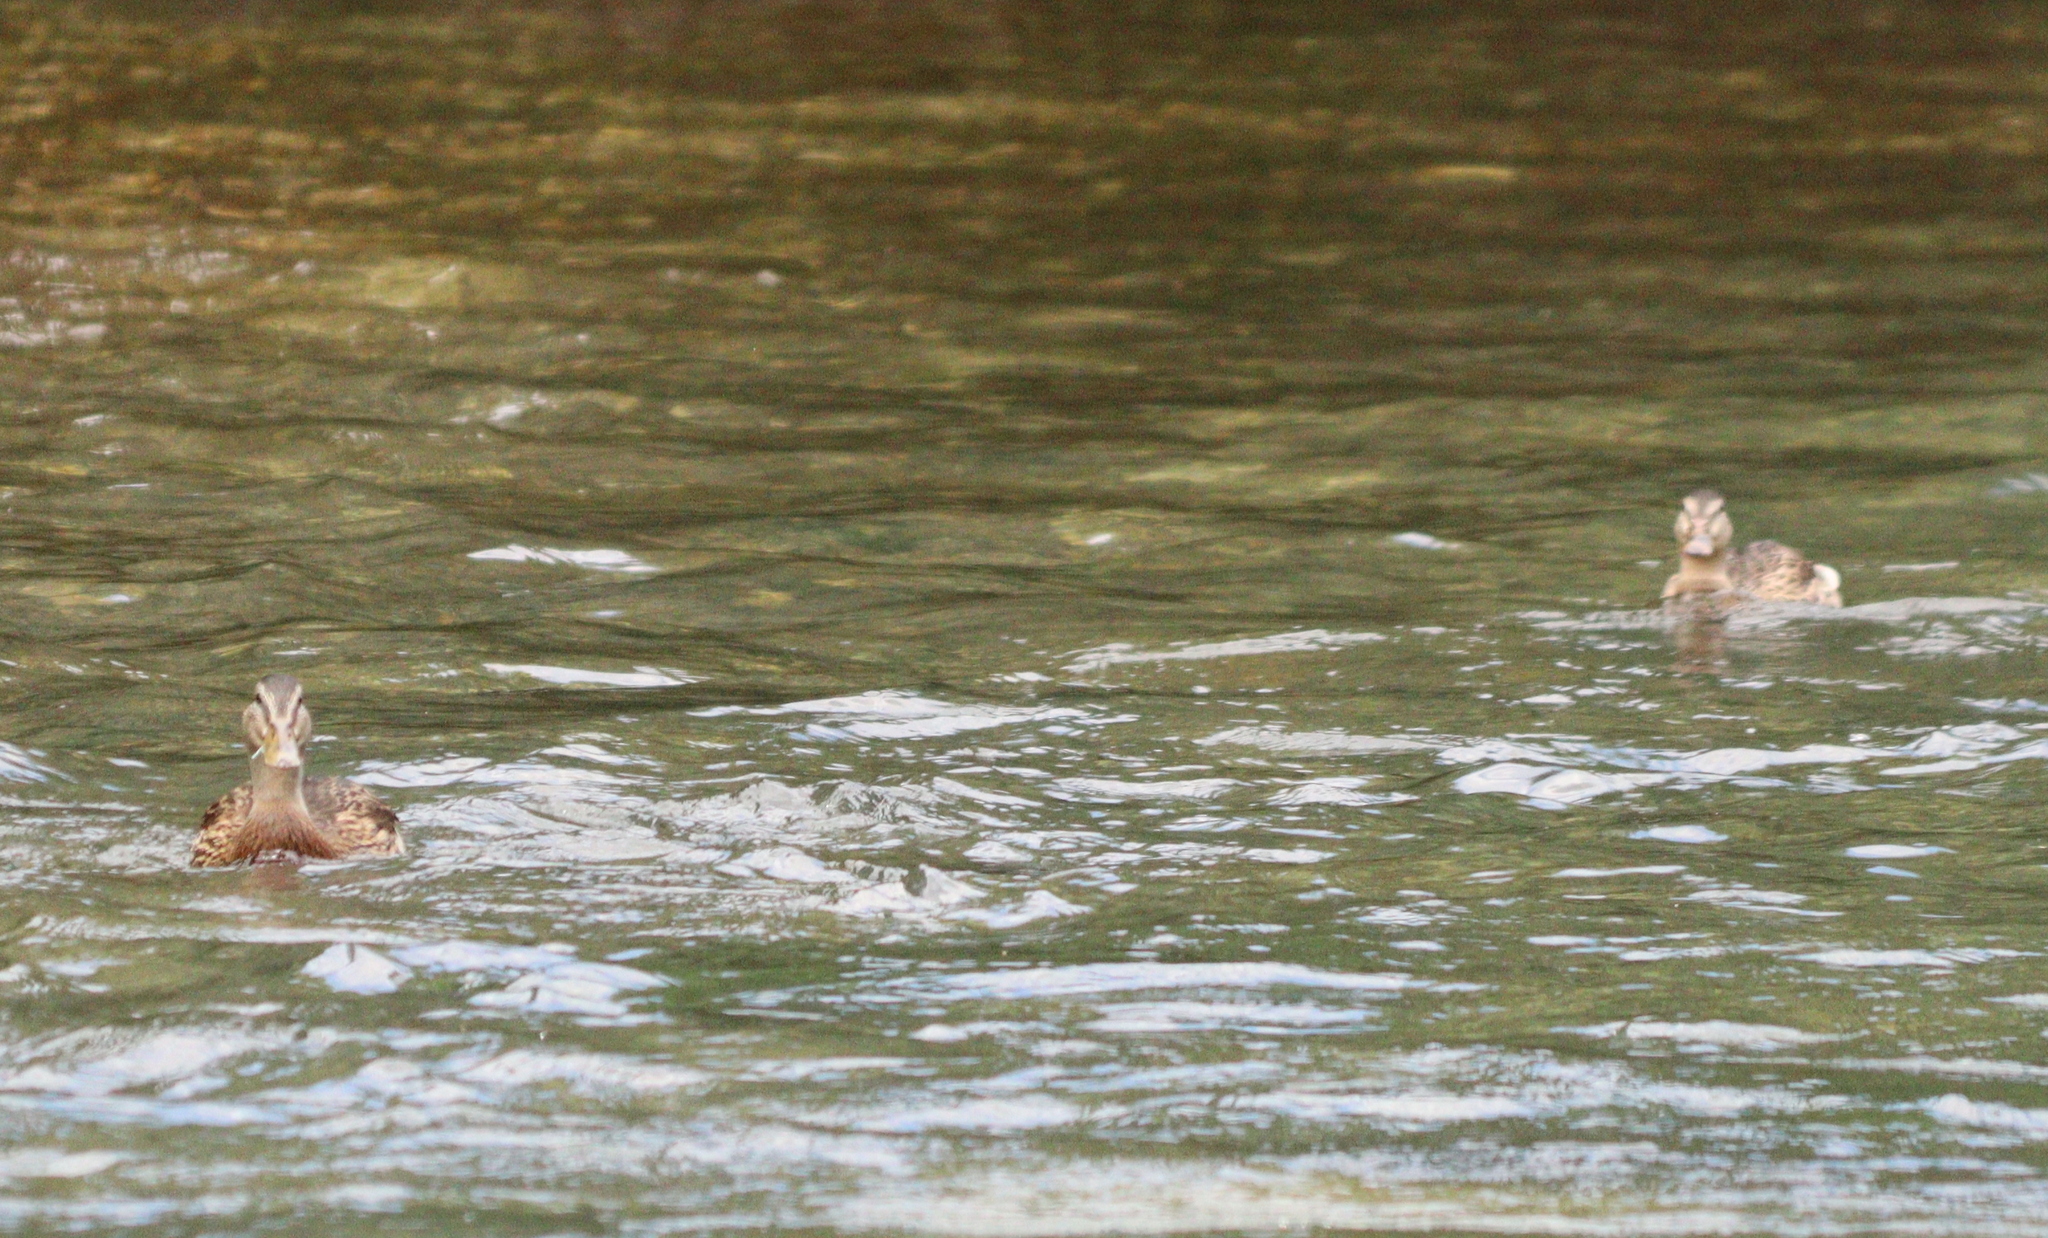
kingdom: Animalia
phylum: Chordata
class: Aves
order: Anseriformes
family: Anatidae
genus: Anas
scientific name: Anas platyrhynchos
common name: Mallard
